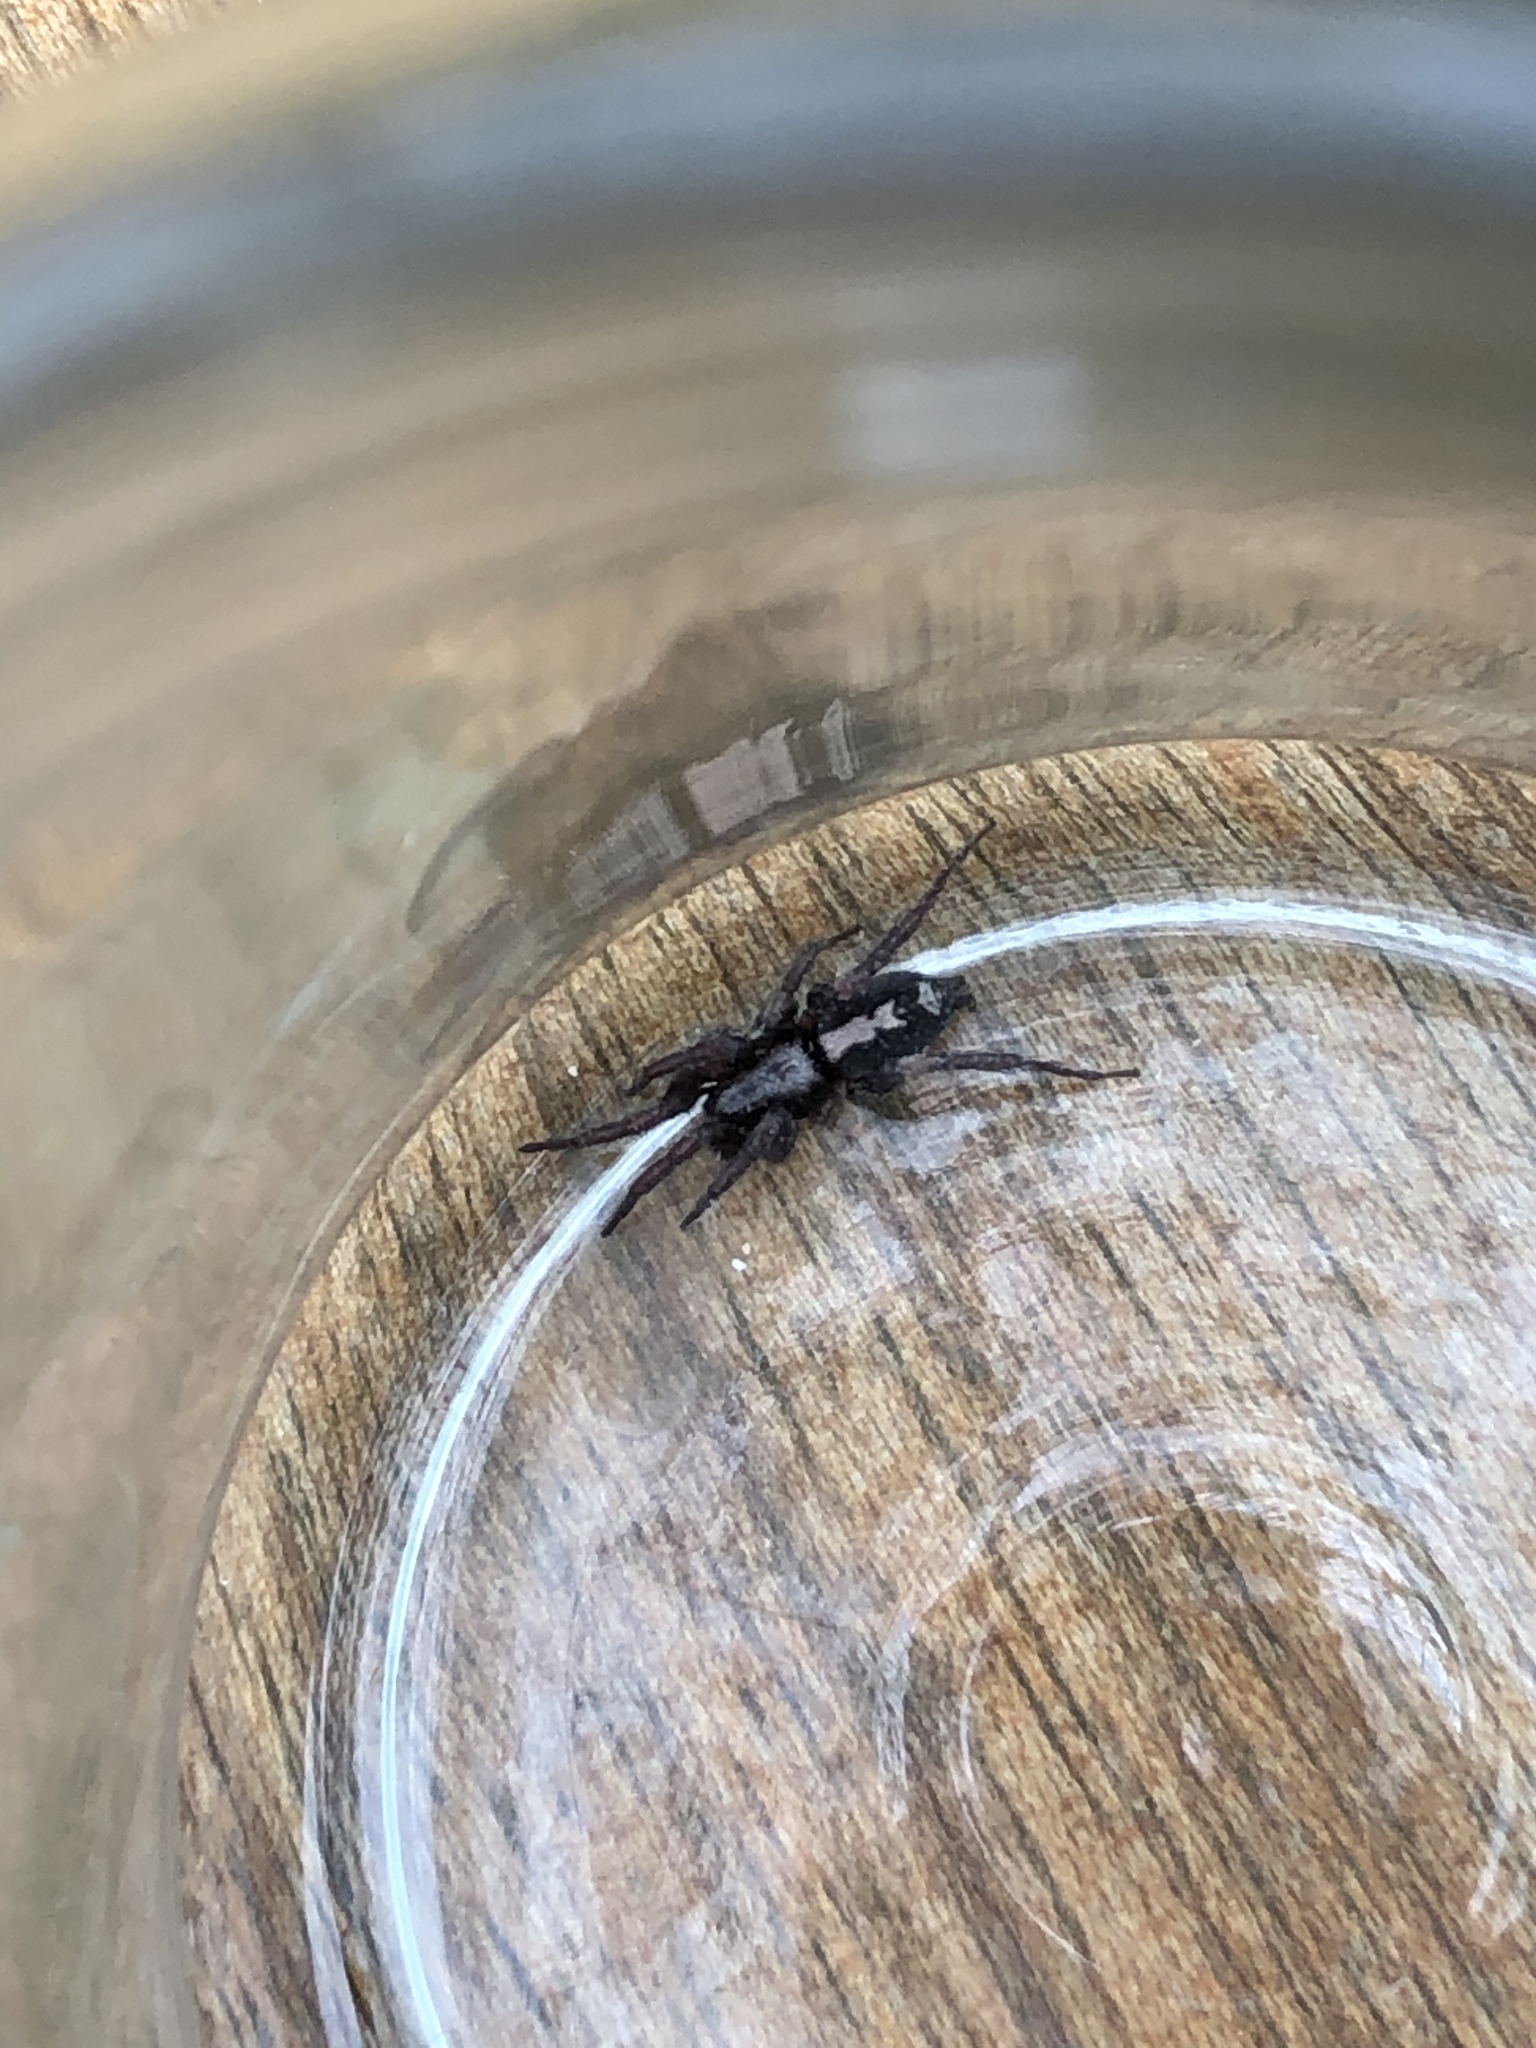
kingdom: Animalia
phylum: Arthropoda
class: Arachnida
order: Araneae
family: Gnaphosidae
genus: Herpyllus
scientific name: Herpyllus ecclesiasticus
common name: Eastern parson spider
